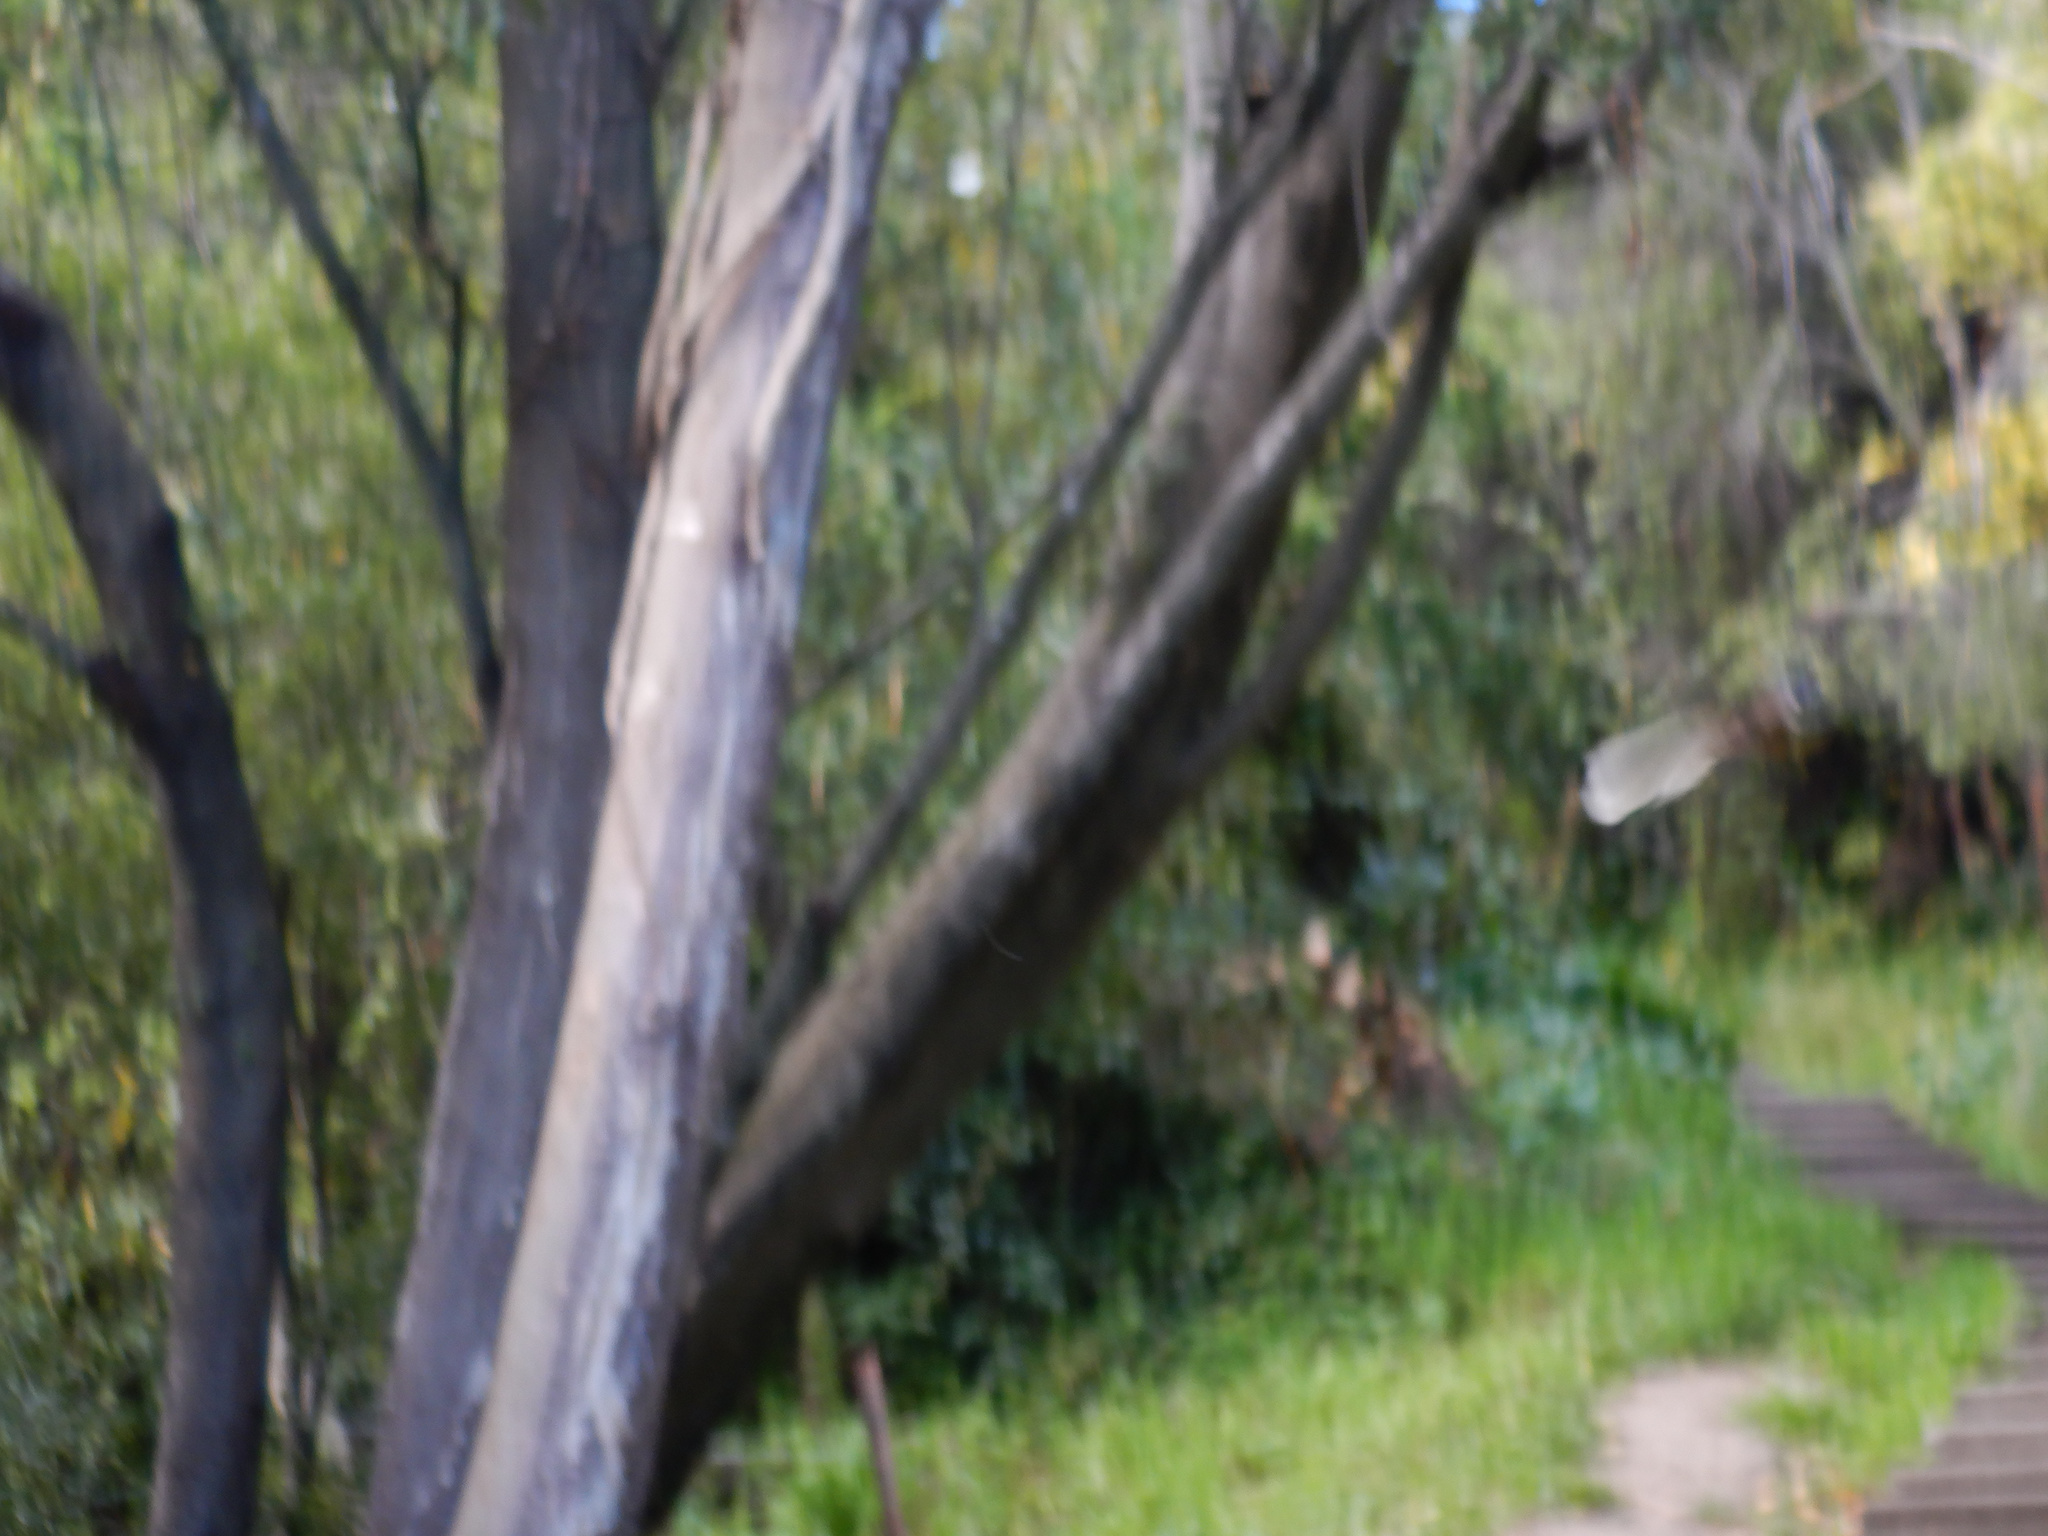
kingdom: Animalia
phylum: Chordata
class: Aves
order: Passeriformes
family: Rhipiduridae
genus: Rhipidura
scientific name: Rhipidura fuliginosa
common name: New zealand fantail
